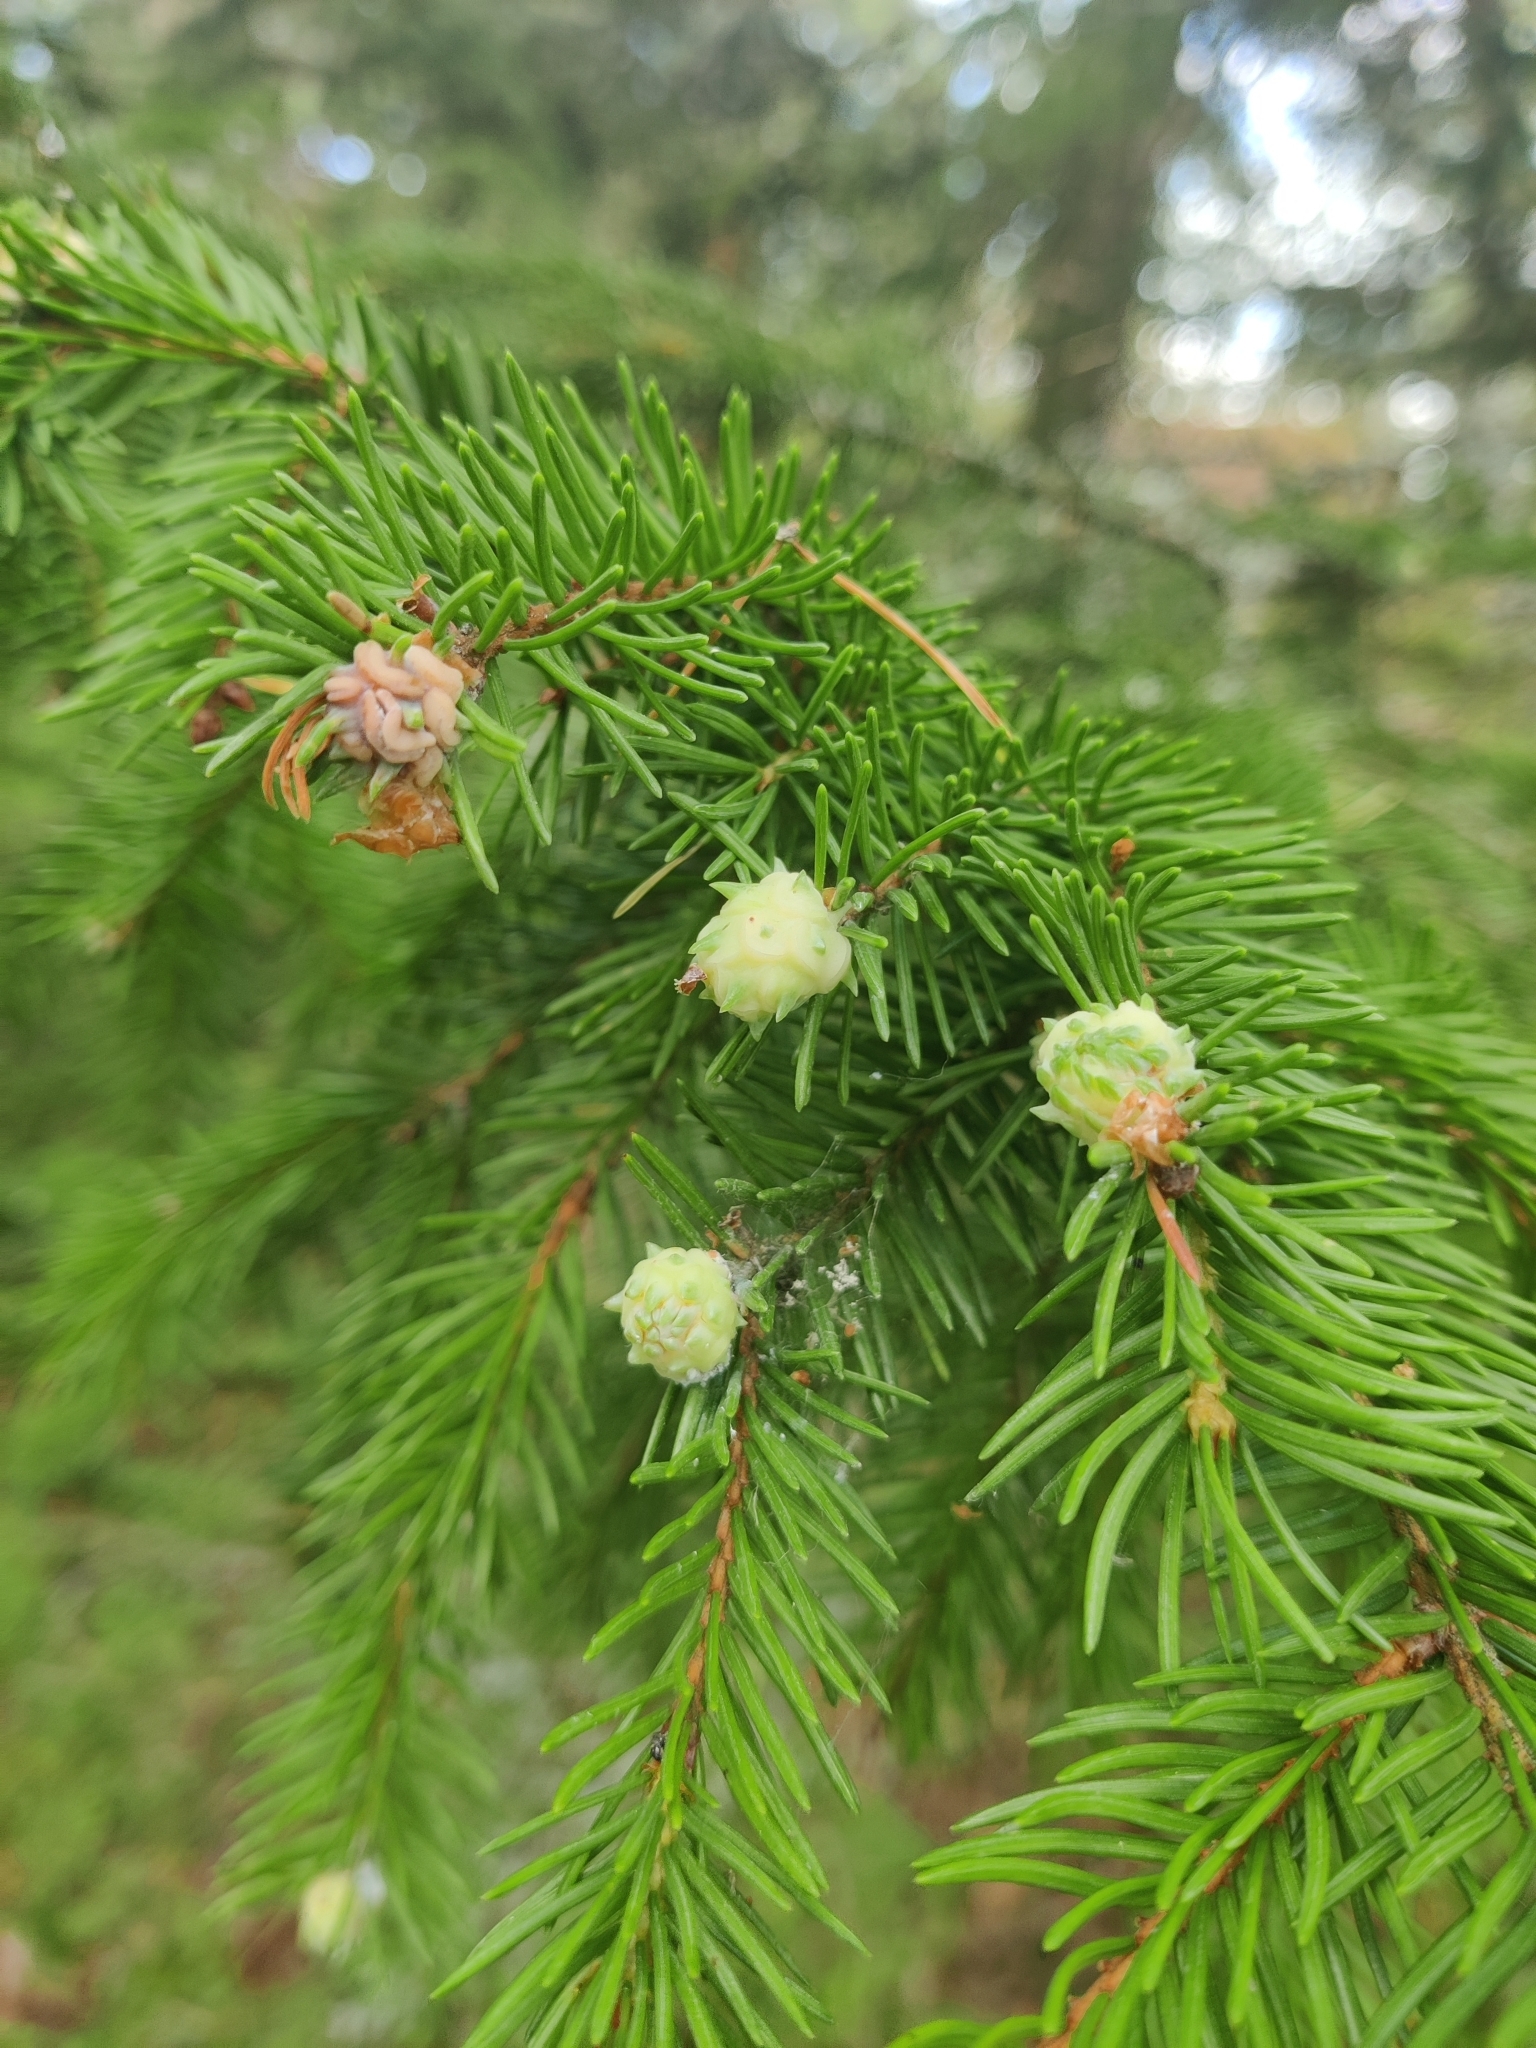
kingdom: Animalia
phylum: Arthropoda
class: Insecta
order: Hemiptera
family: Adelgidae
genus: Adelges
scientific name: Adelges laricis
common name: Pale spruce gall adelgid
